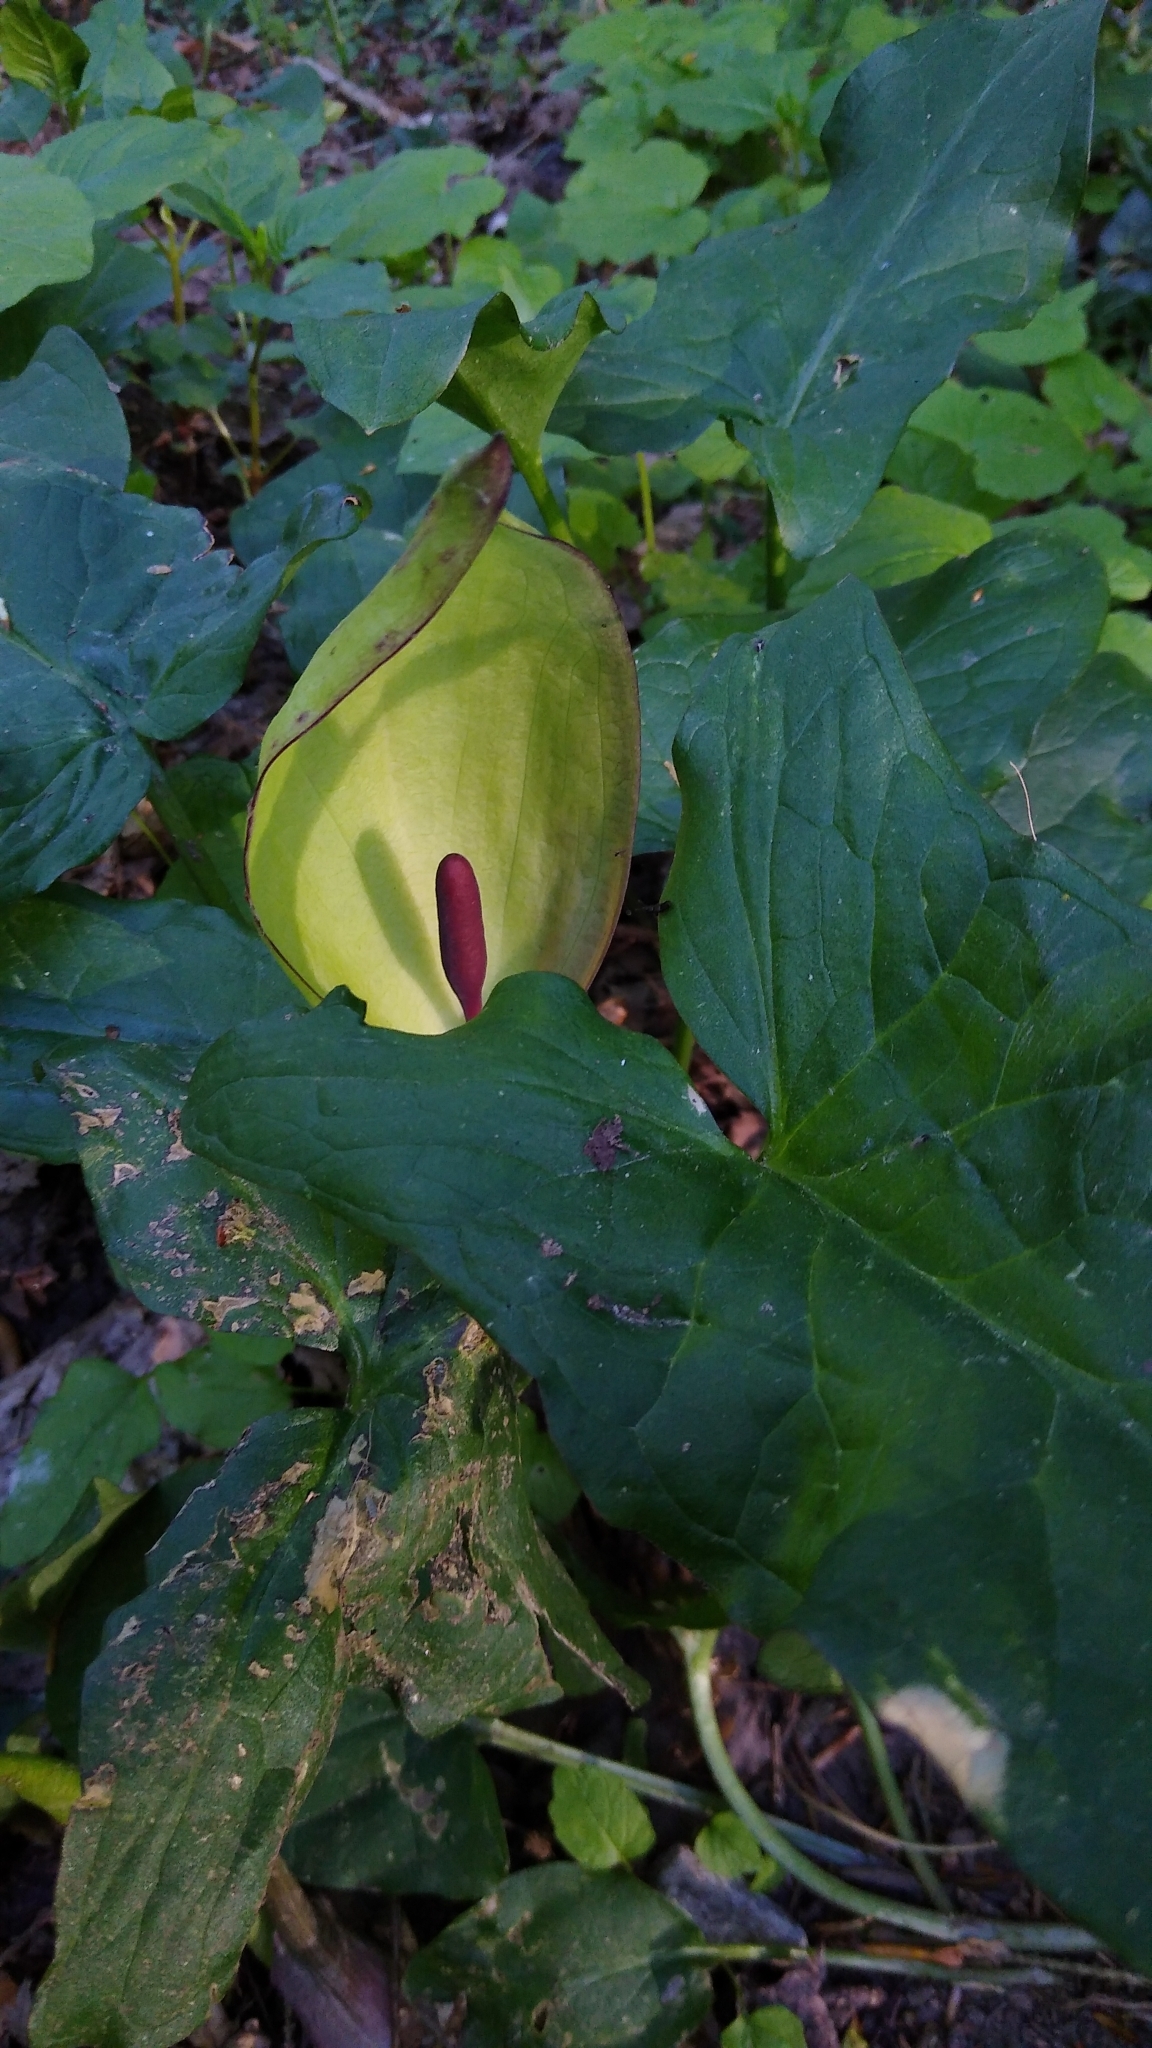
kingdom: Plantae
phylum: Tracheophyta
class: Liliopsida
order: Alismatales
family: Araceae
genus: Arum
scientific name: Arum maculatum
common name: Lords-and-ladies
